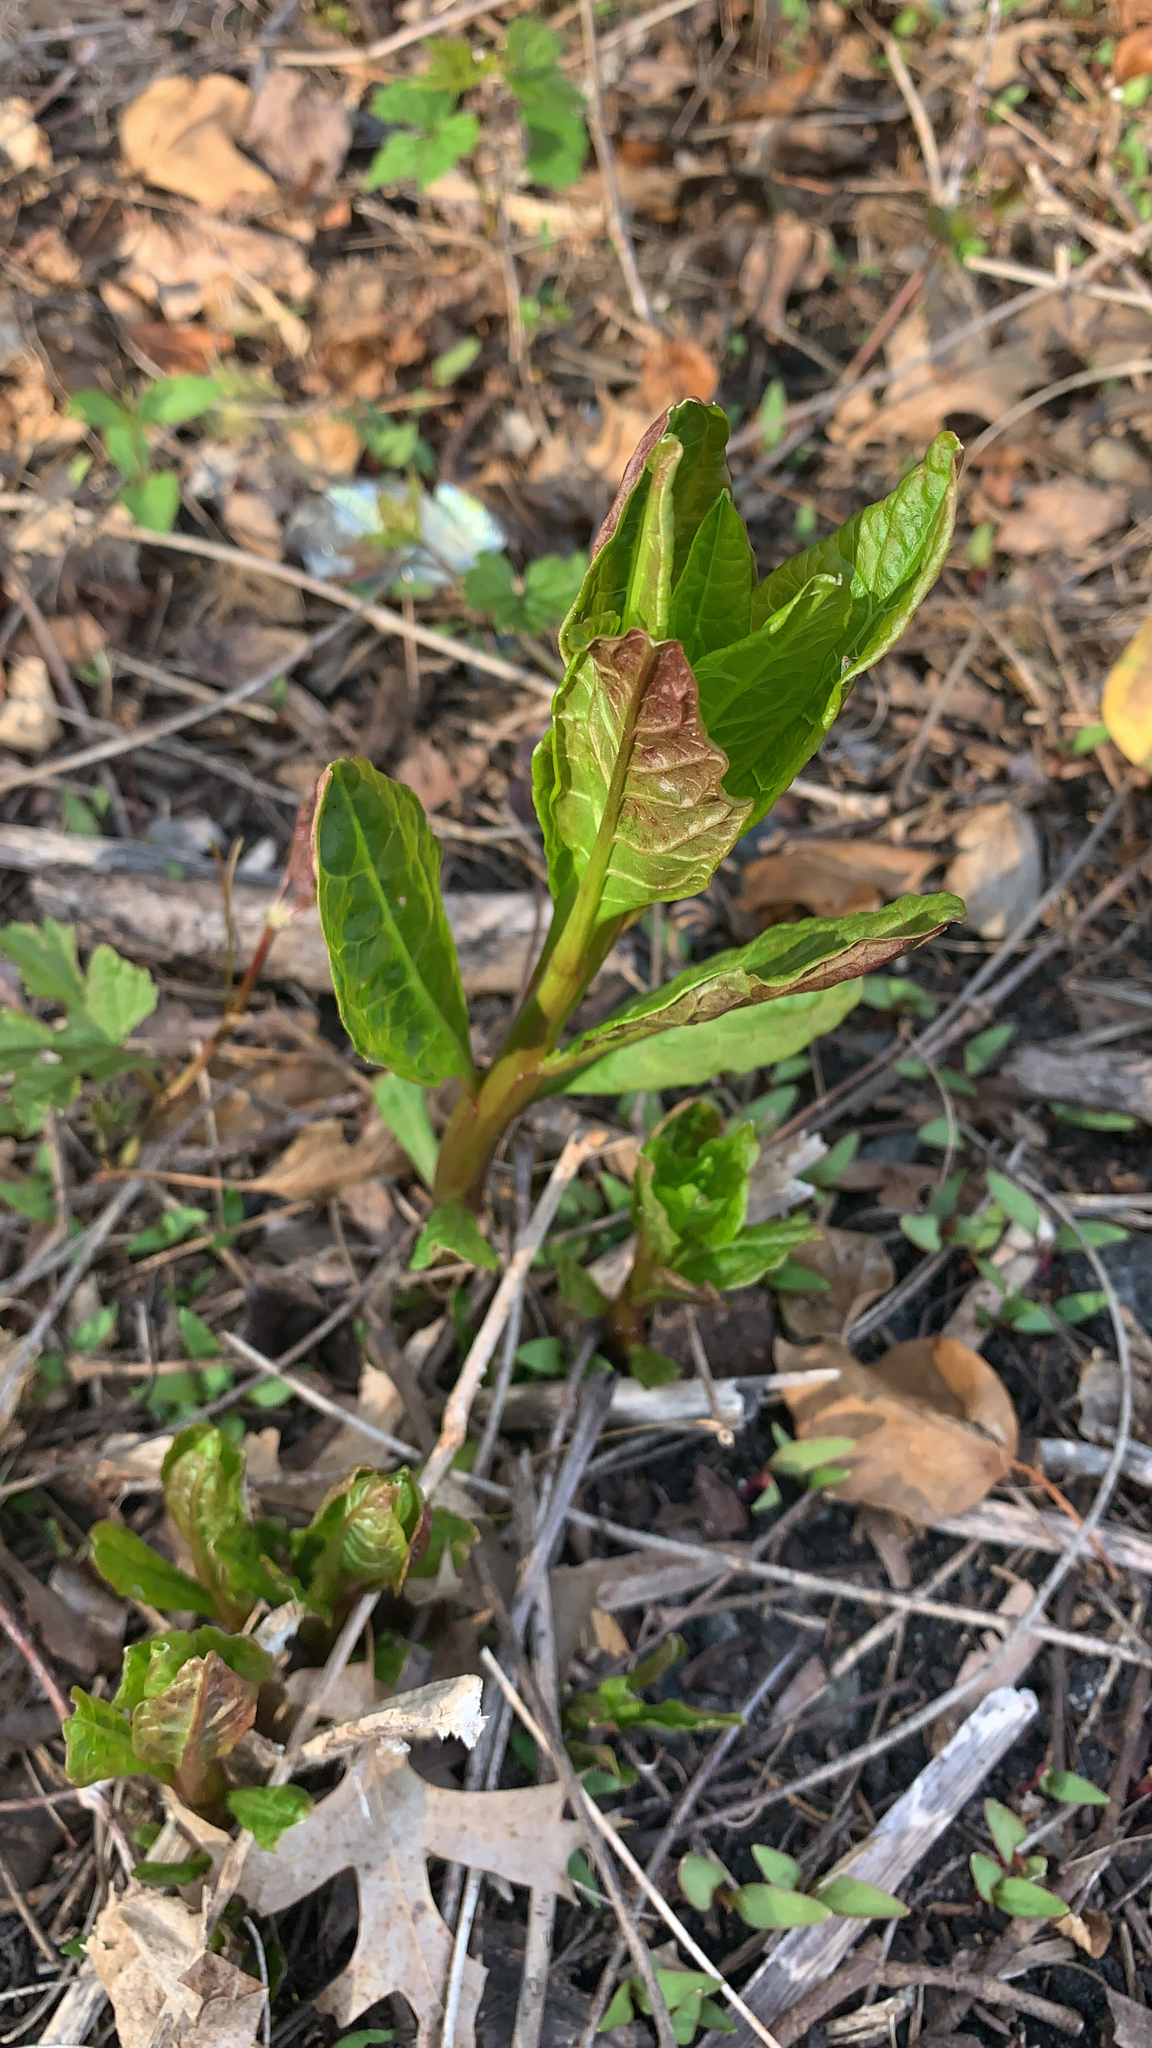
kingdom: Plantae
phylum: Tracheophyta
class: Magnoliopsida
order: Caryophyllales
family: Polygonaceae
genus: Reynoutria
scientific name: Reynoutria
